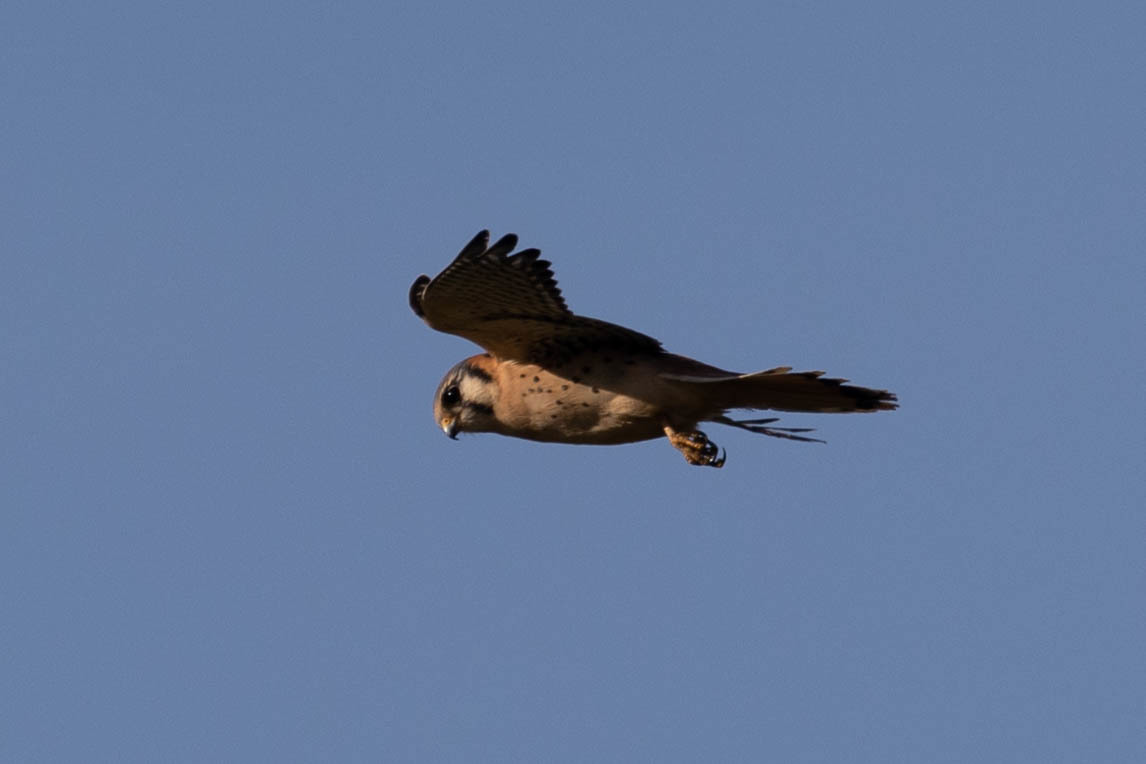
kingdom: Animalia
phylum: Chordata
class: Aves
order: Falconiformes
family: Falconidae
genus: Falco
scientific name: Falco sparverius
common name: American kestrel
